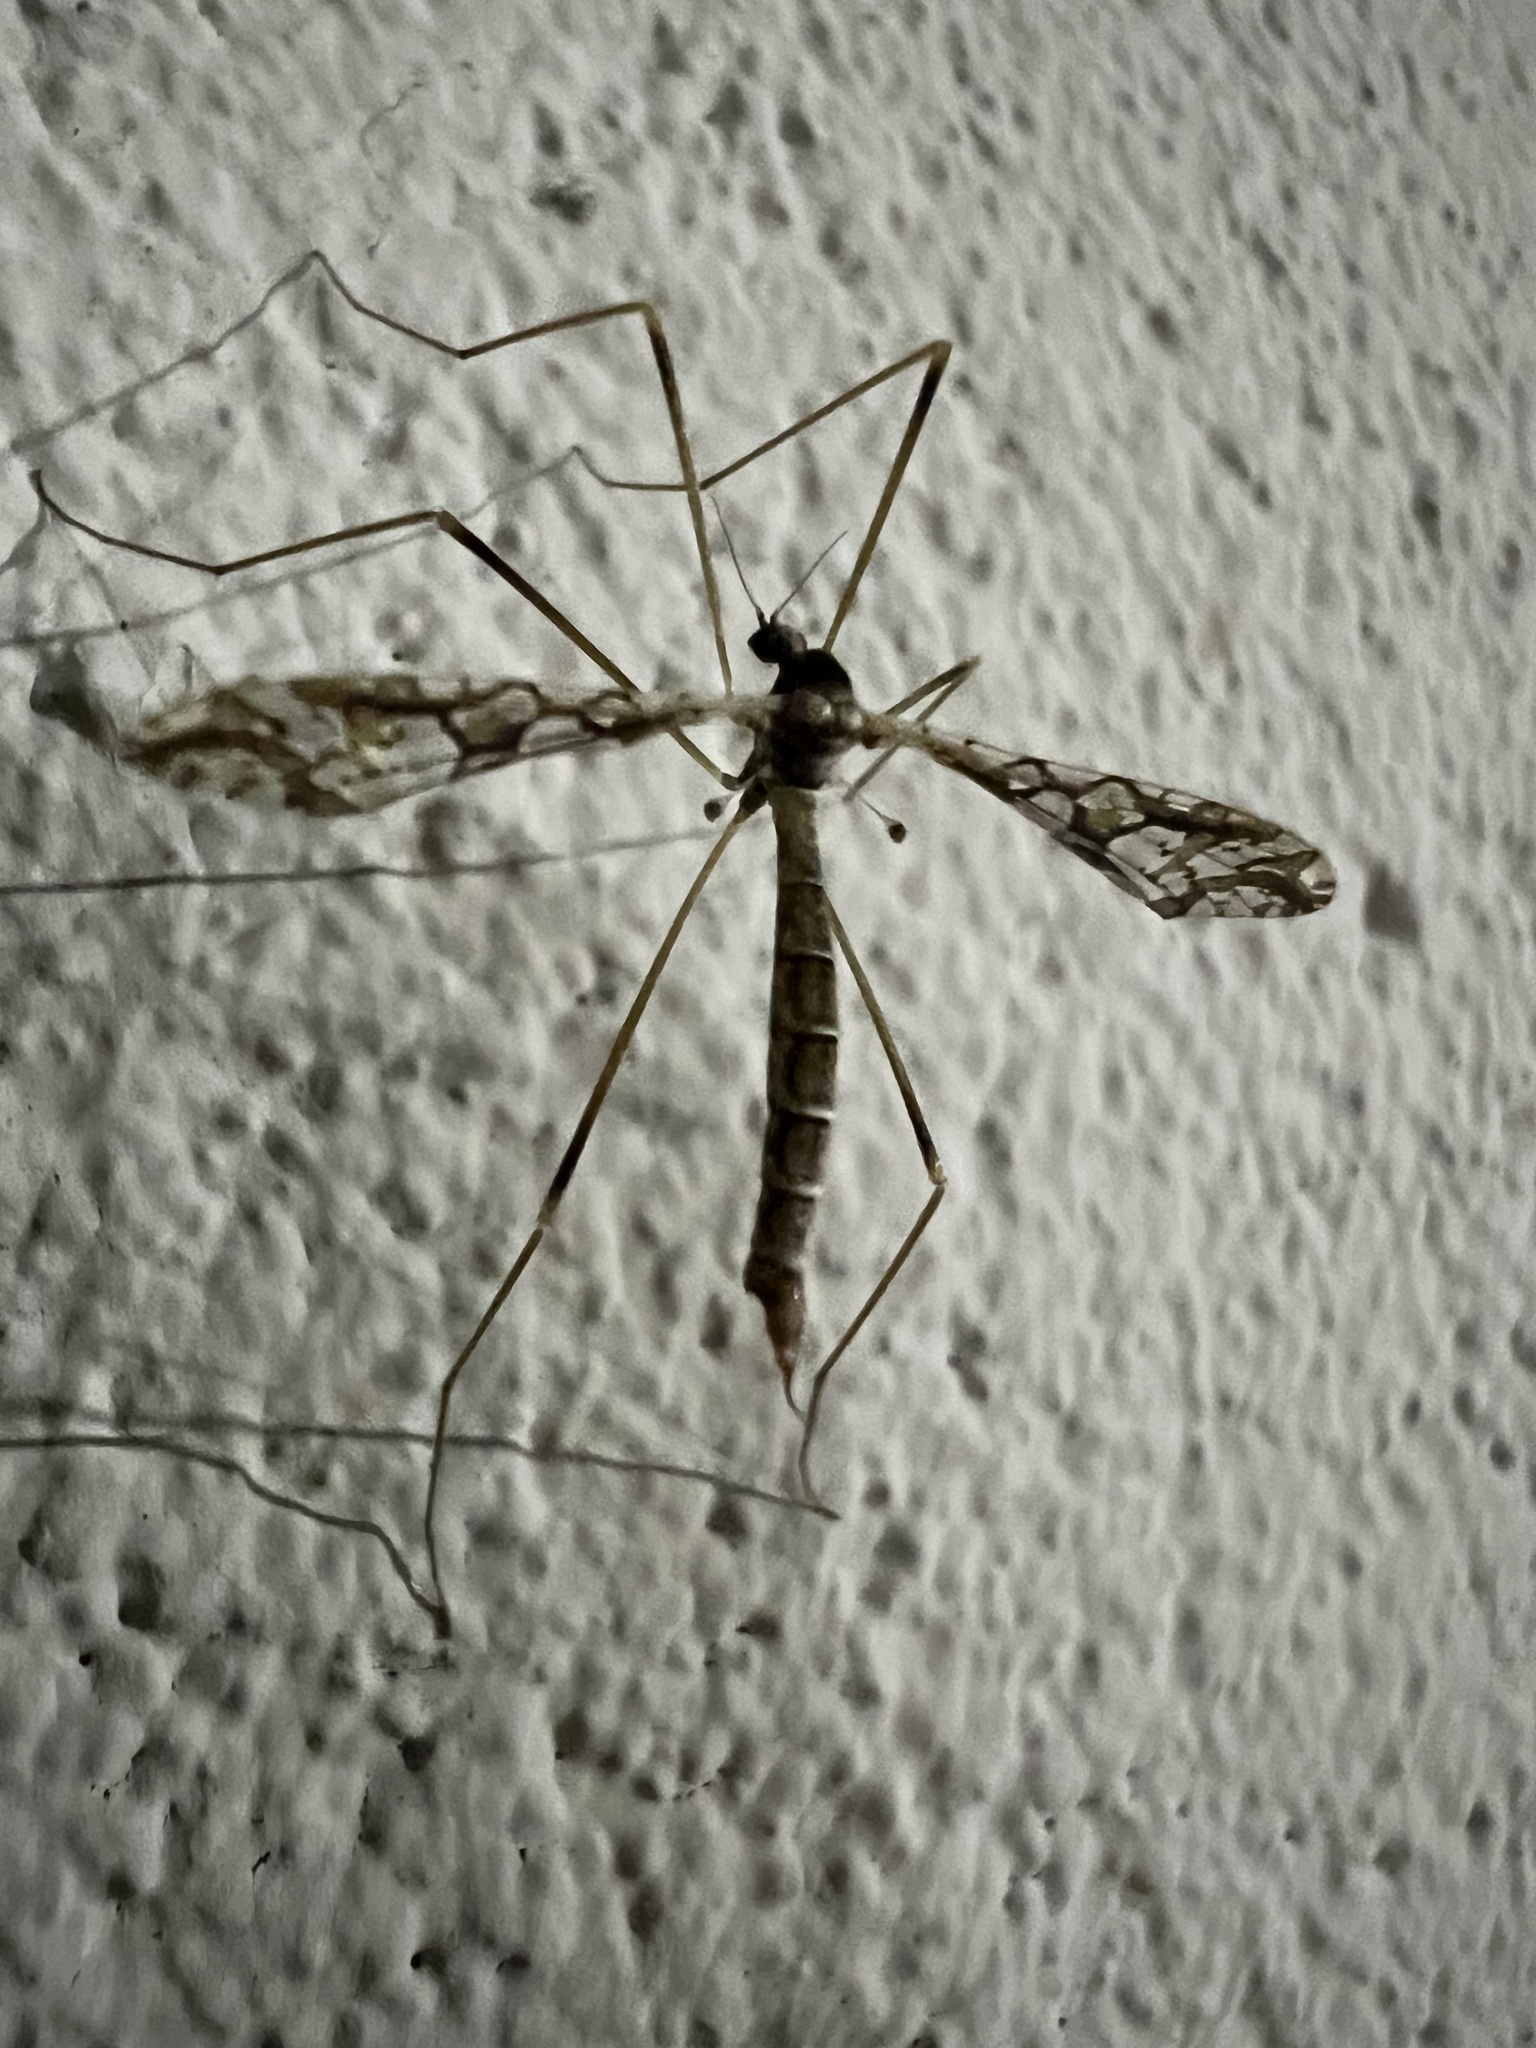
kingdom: Animalia
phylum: Arthropoda
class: Insecta
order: Diptera
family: Limoniidae
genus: Epiphragma
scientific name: Epiphragma solatrix
